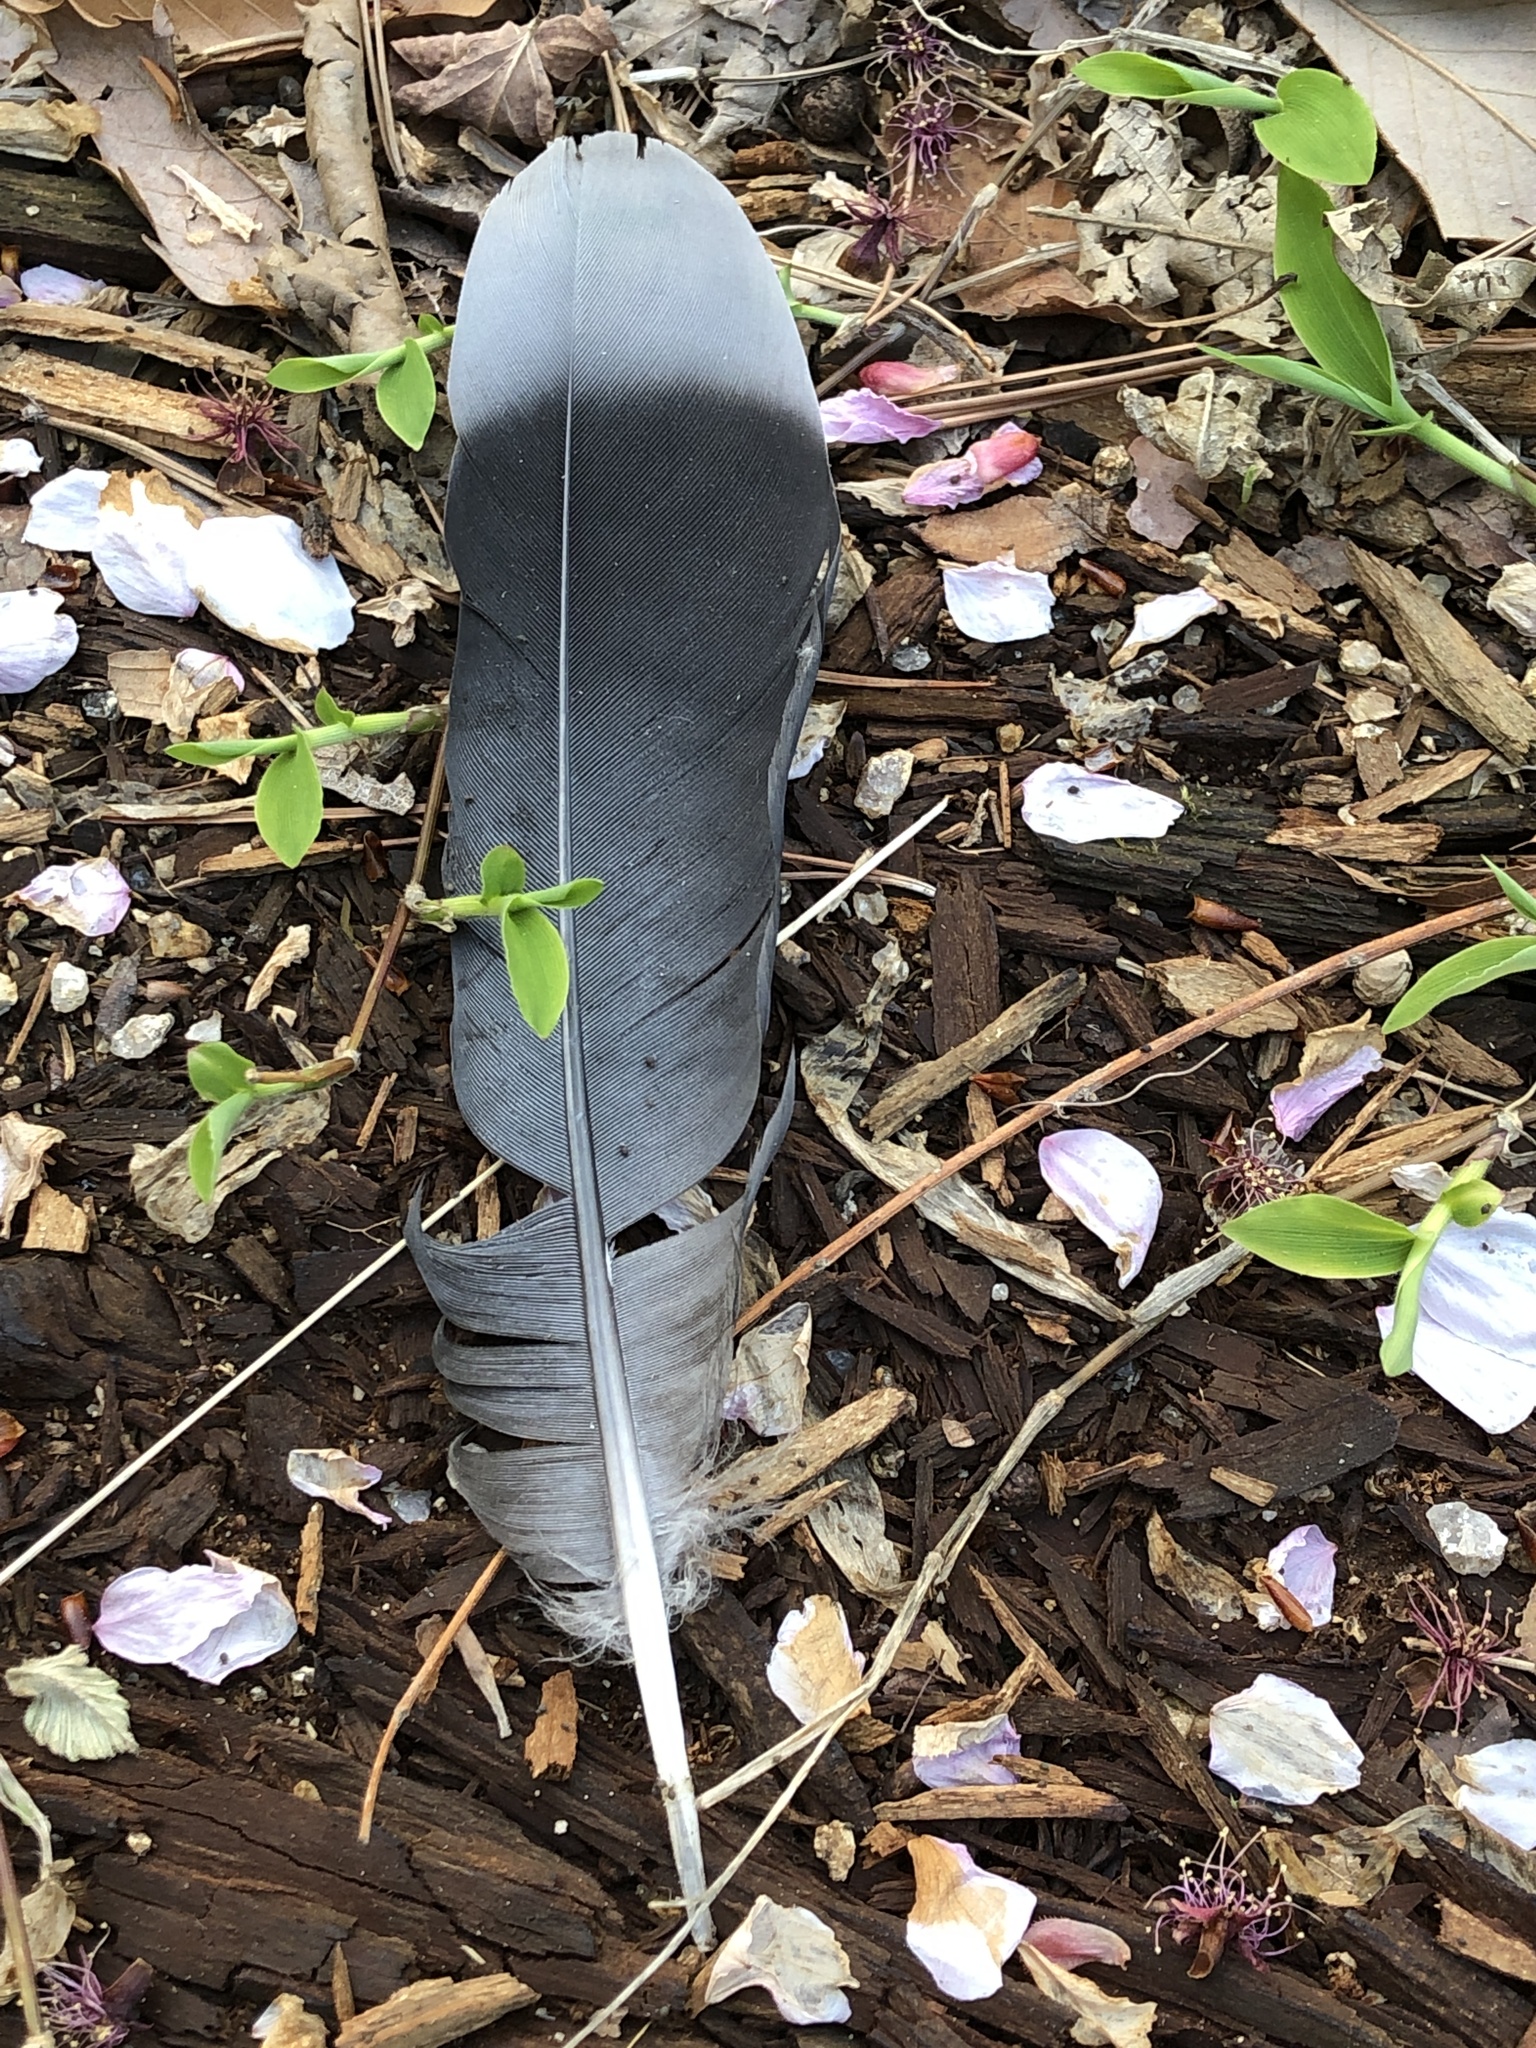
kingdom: Animalia
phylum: Chordata
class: Aves
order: Columbiformes
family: Columbidae
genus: Streptopelia
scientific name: Streptopelia orientalis
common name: Oriental turtle dove
